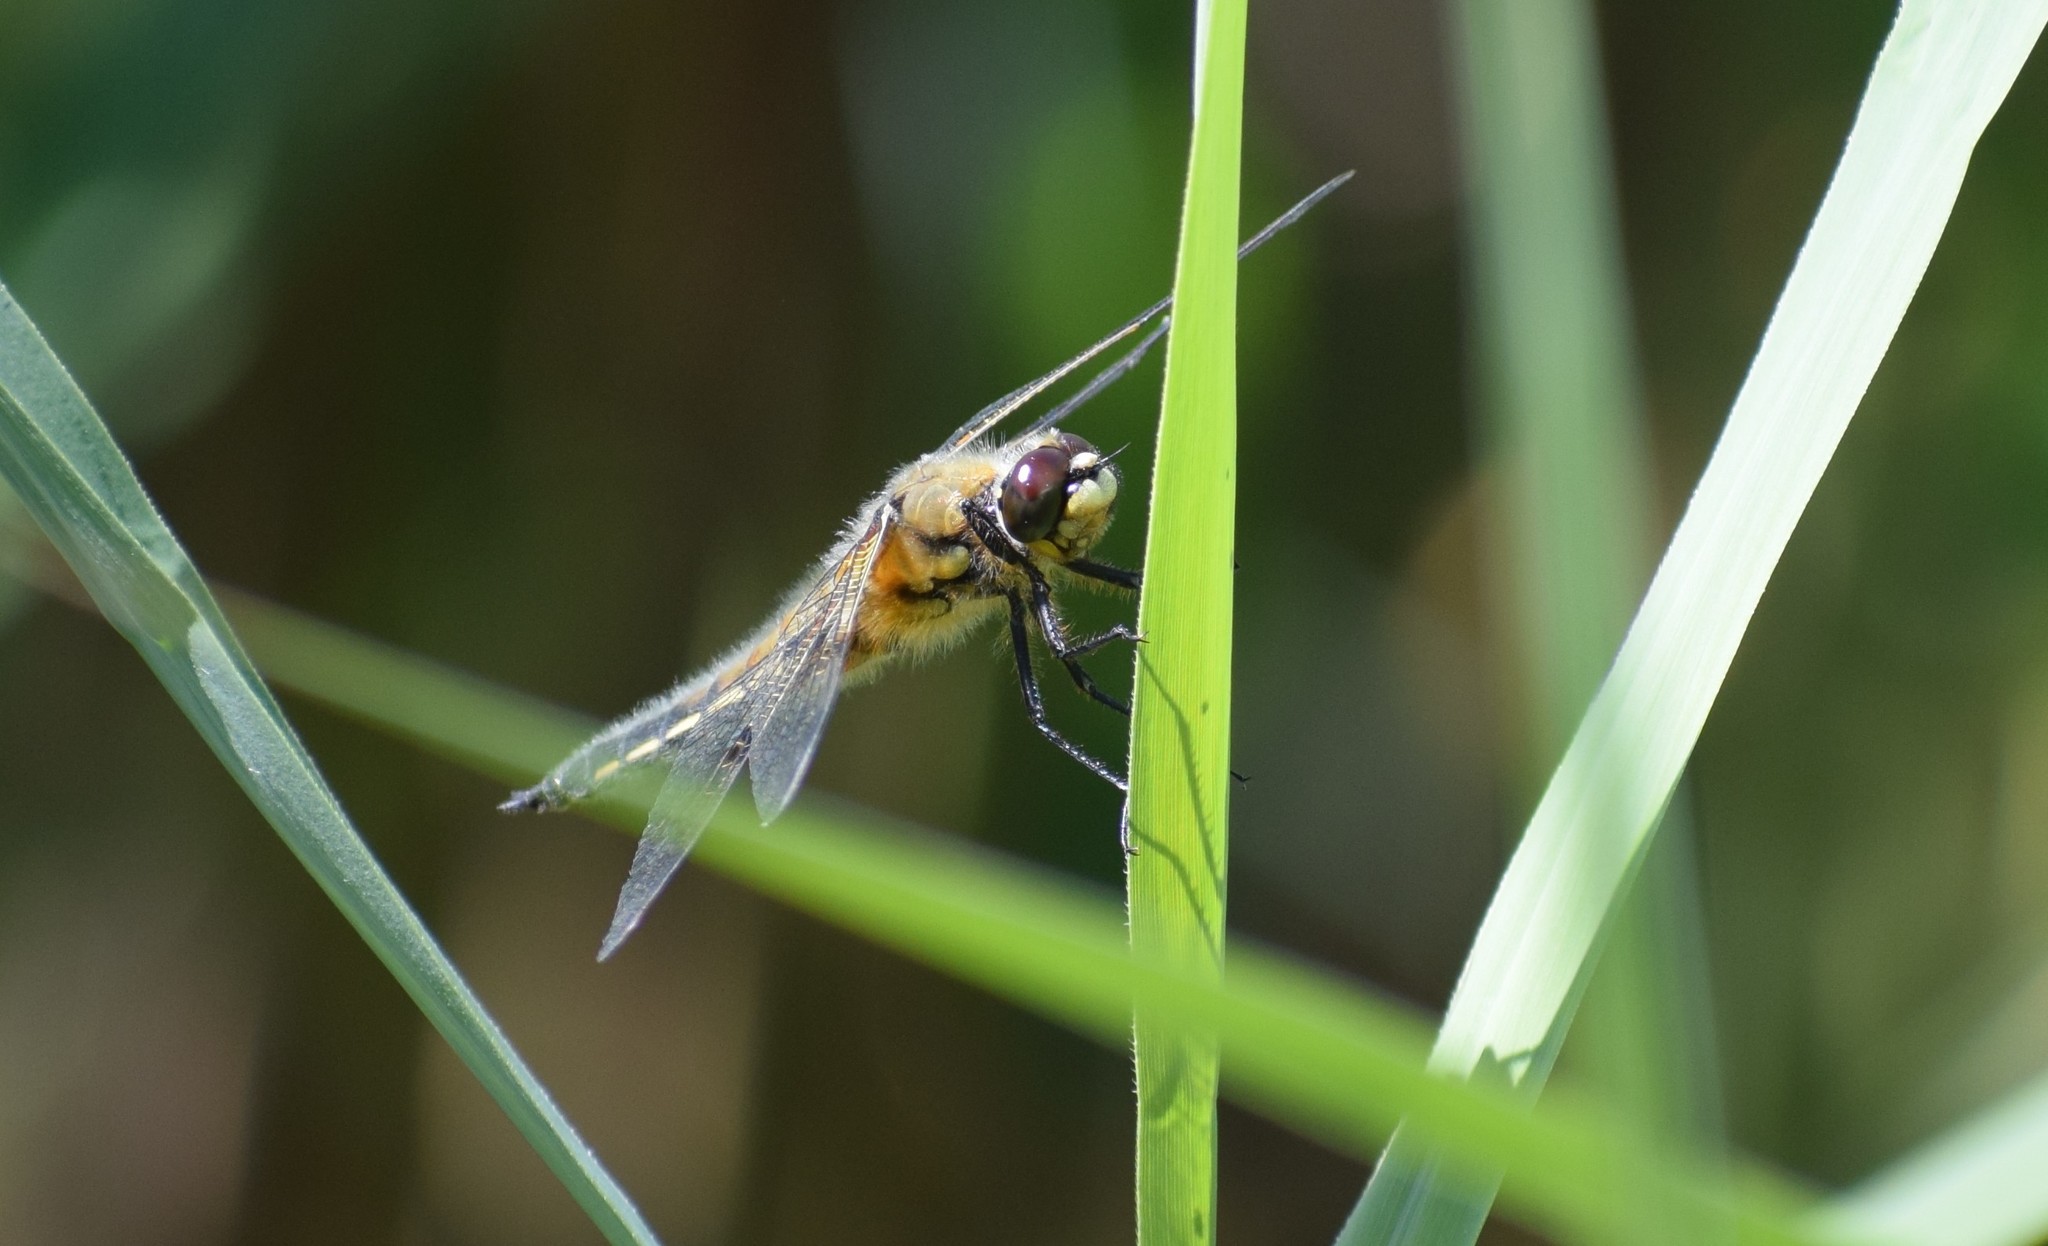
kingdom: Animalia
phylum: Arthropoda
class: Insecta
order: Odonata
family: Libellulidae
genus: Libellula
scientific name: Libellula quadrimaculata
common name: Four-spotted chaser
